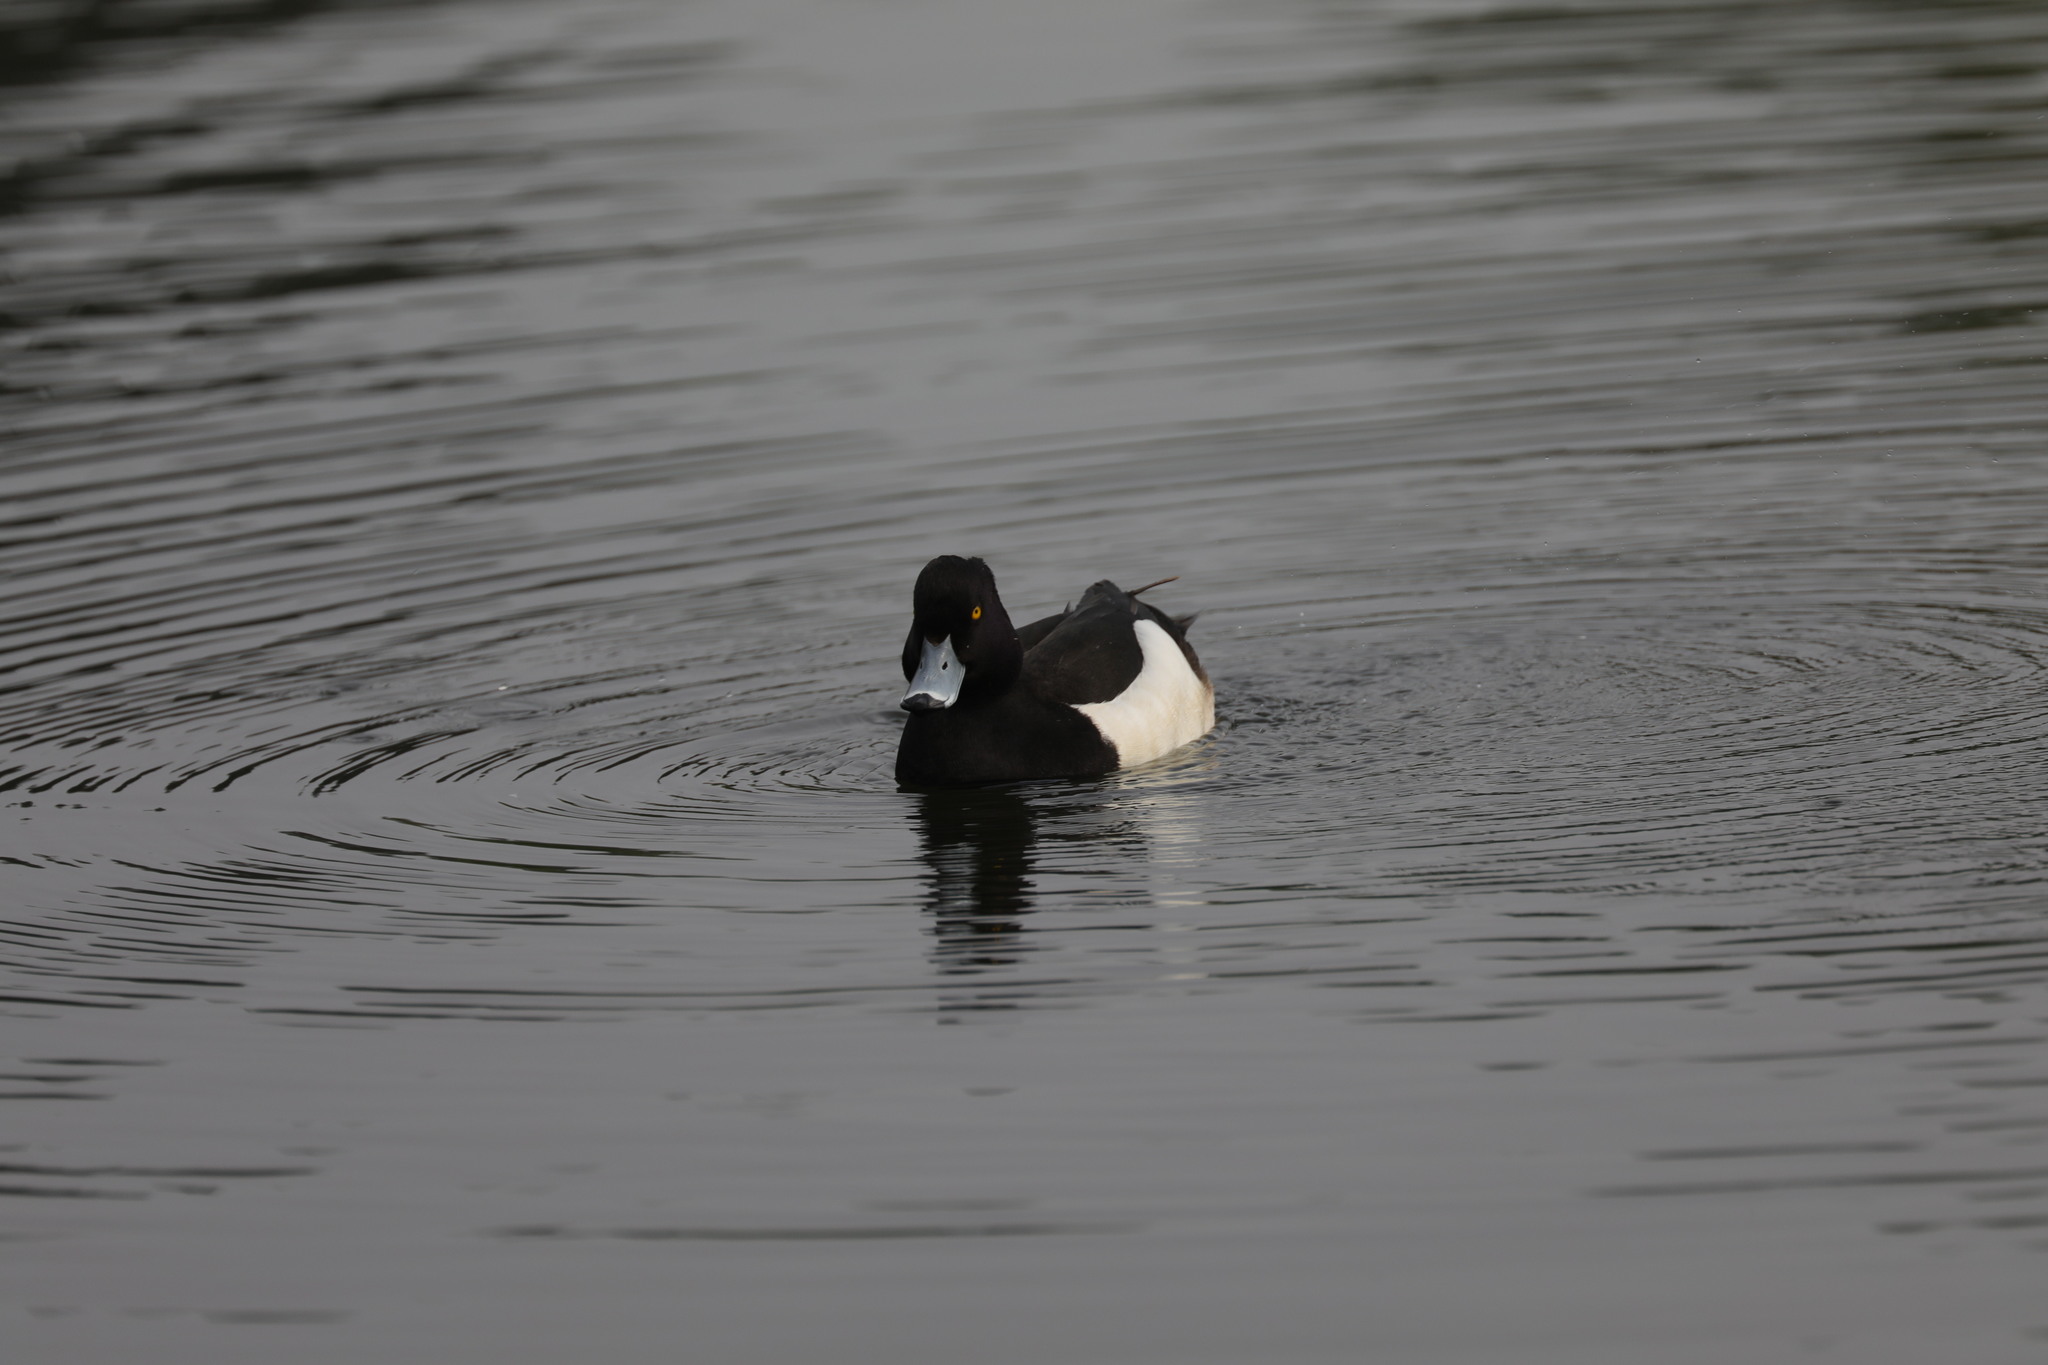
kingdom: Animalia
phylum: Chordata
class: Aves
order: Anseriformes
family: Anatidae
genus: Aythya
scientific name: Aythya fuligula
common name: Tufted duck
